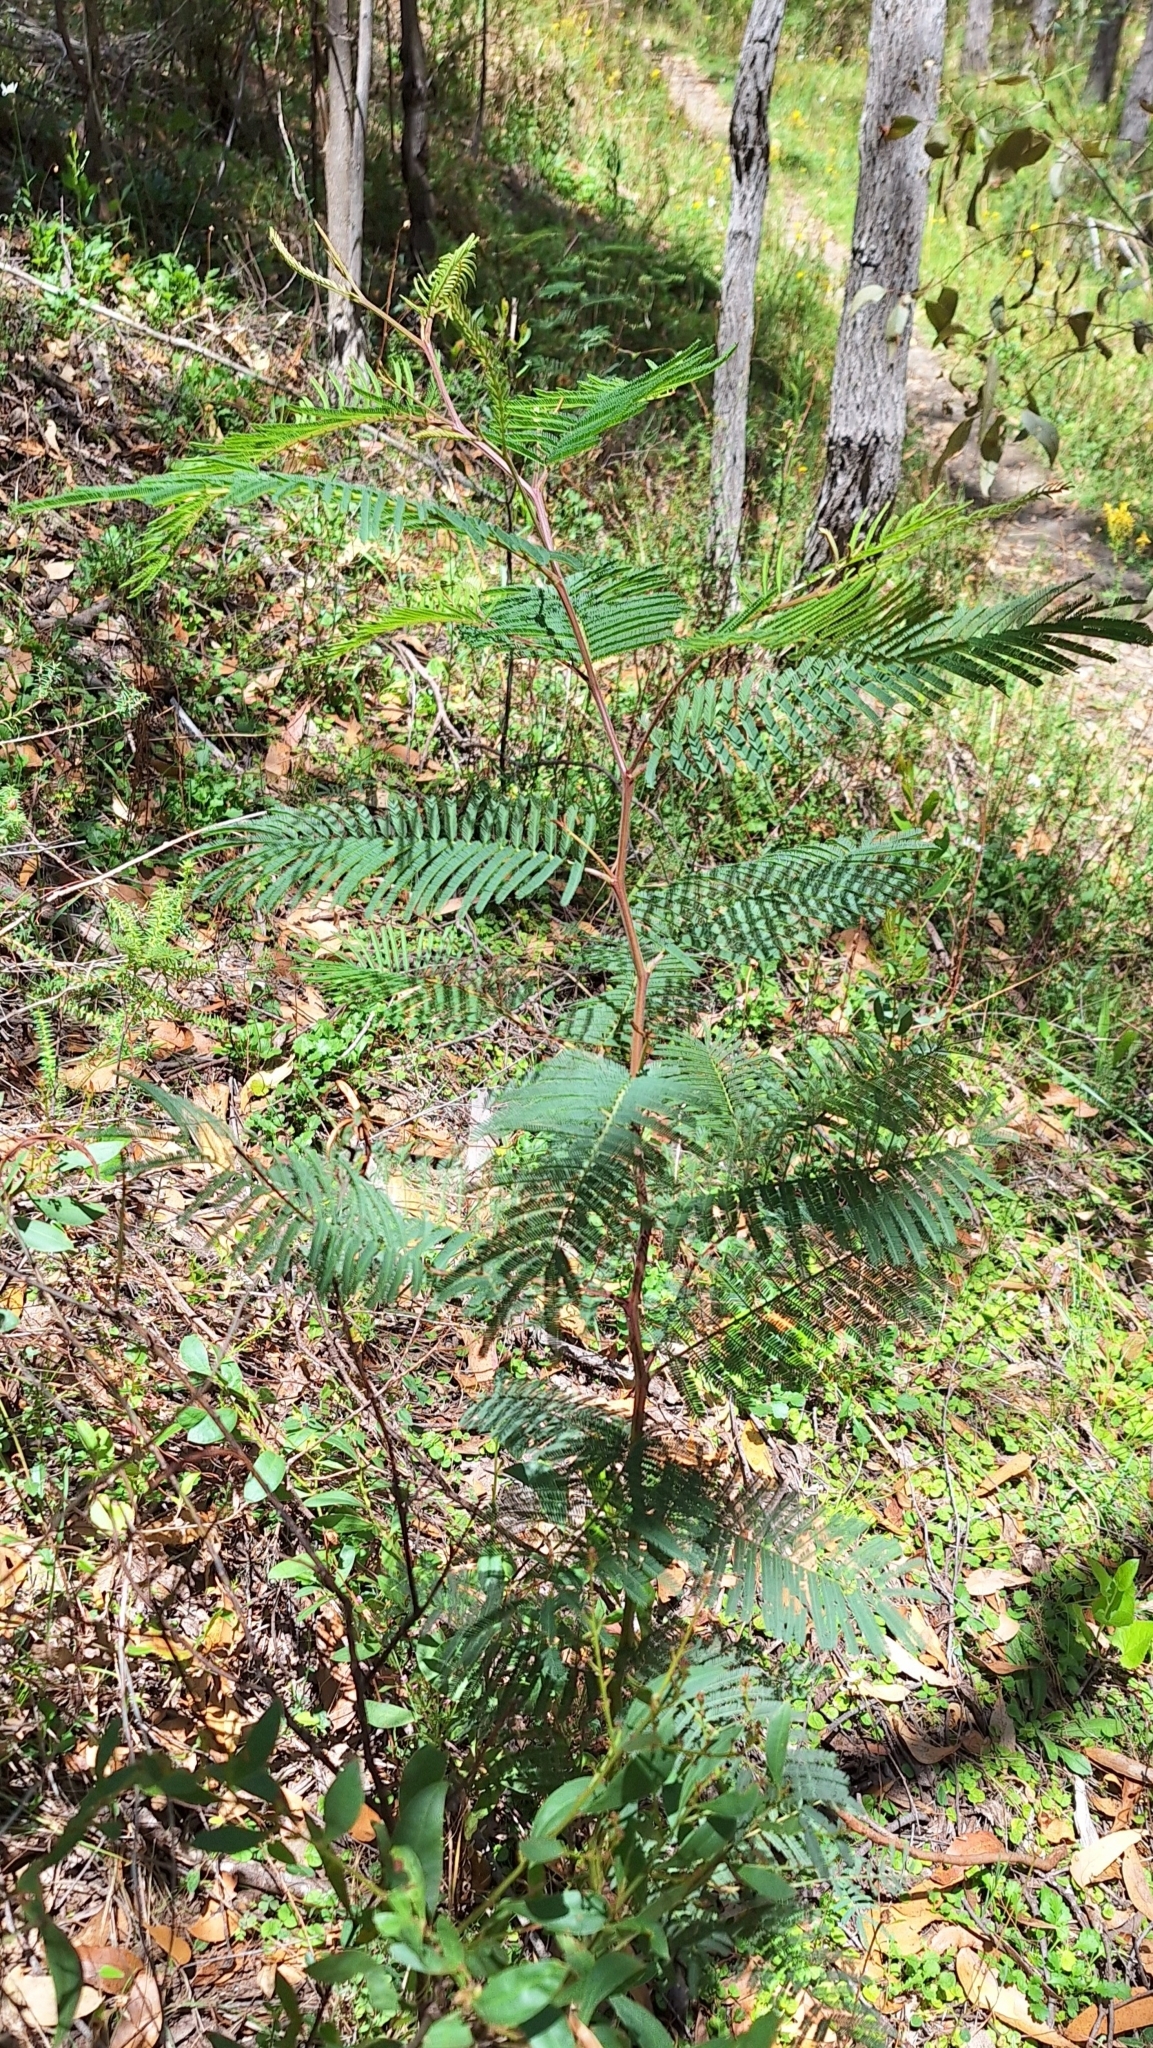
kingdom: Plantae
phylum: Tracheophyta
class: Magnoliopsida
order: Fabales
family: Fabaceae
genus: Acacia
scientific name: Acacia dealbata
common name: Silver wattle
